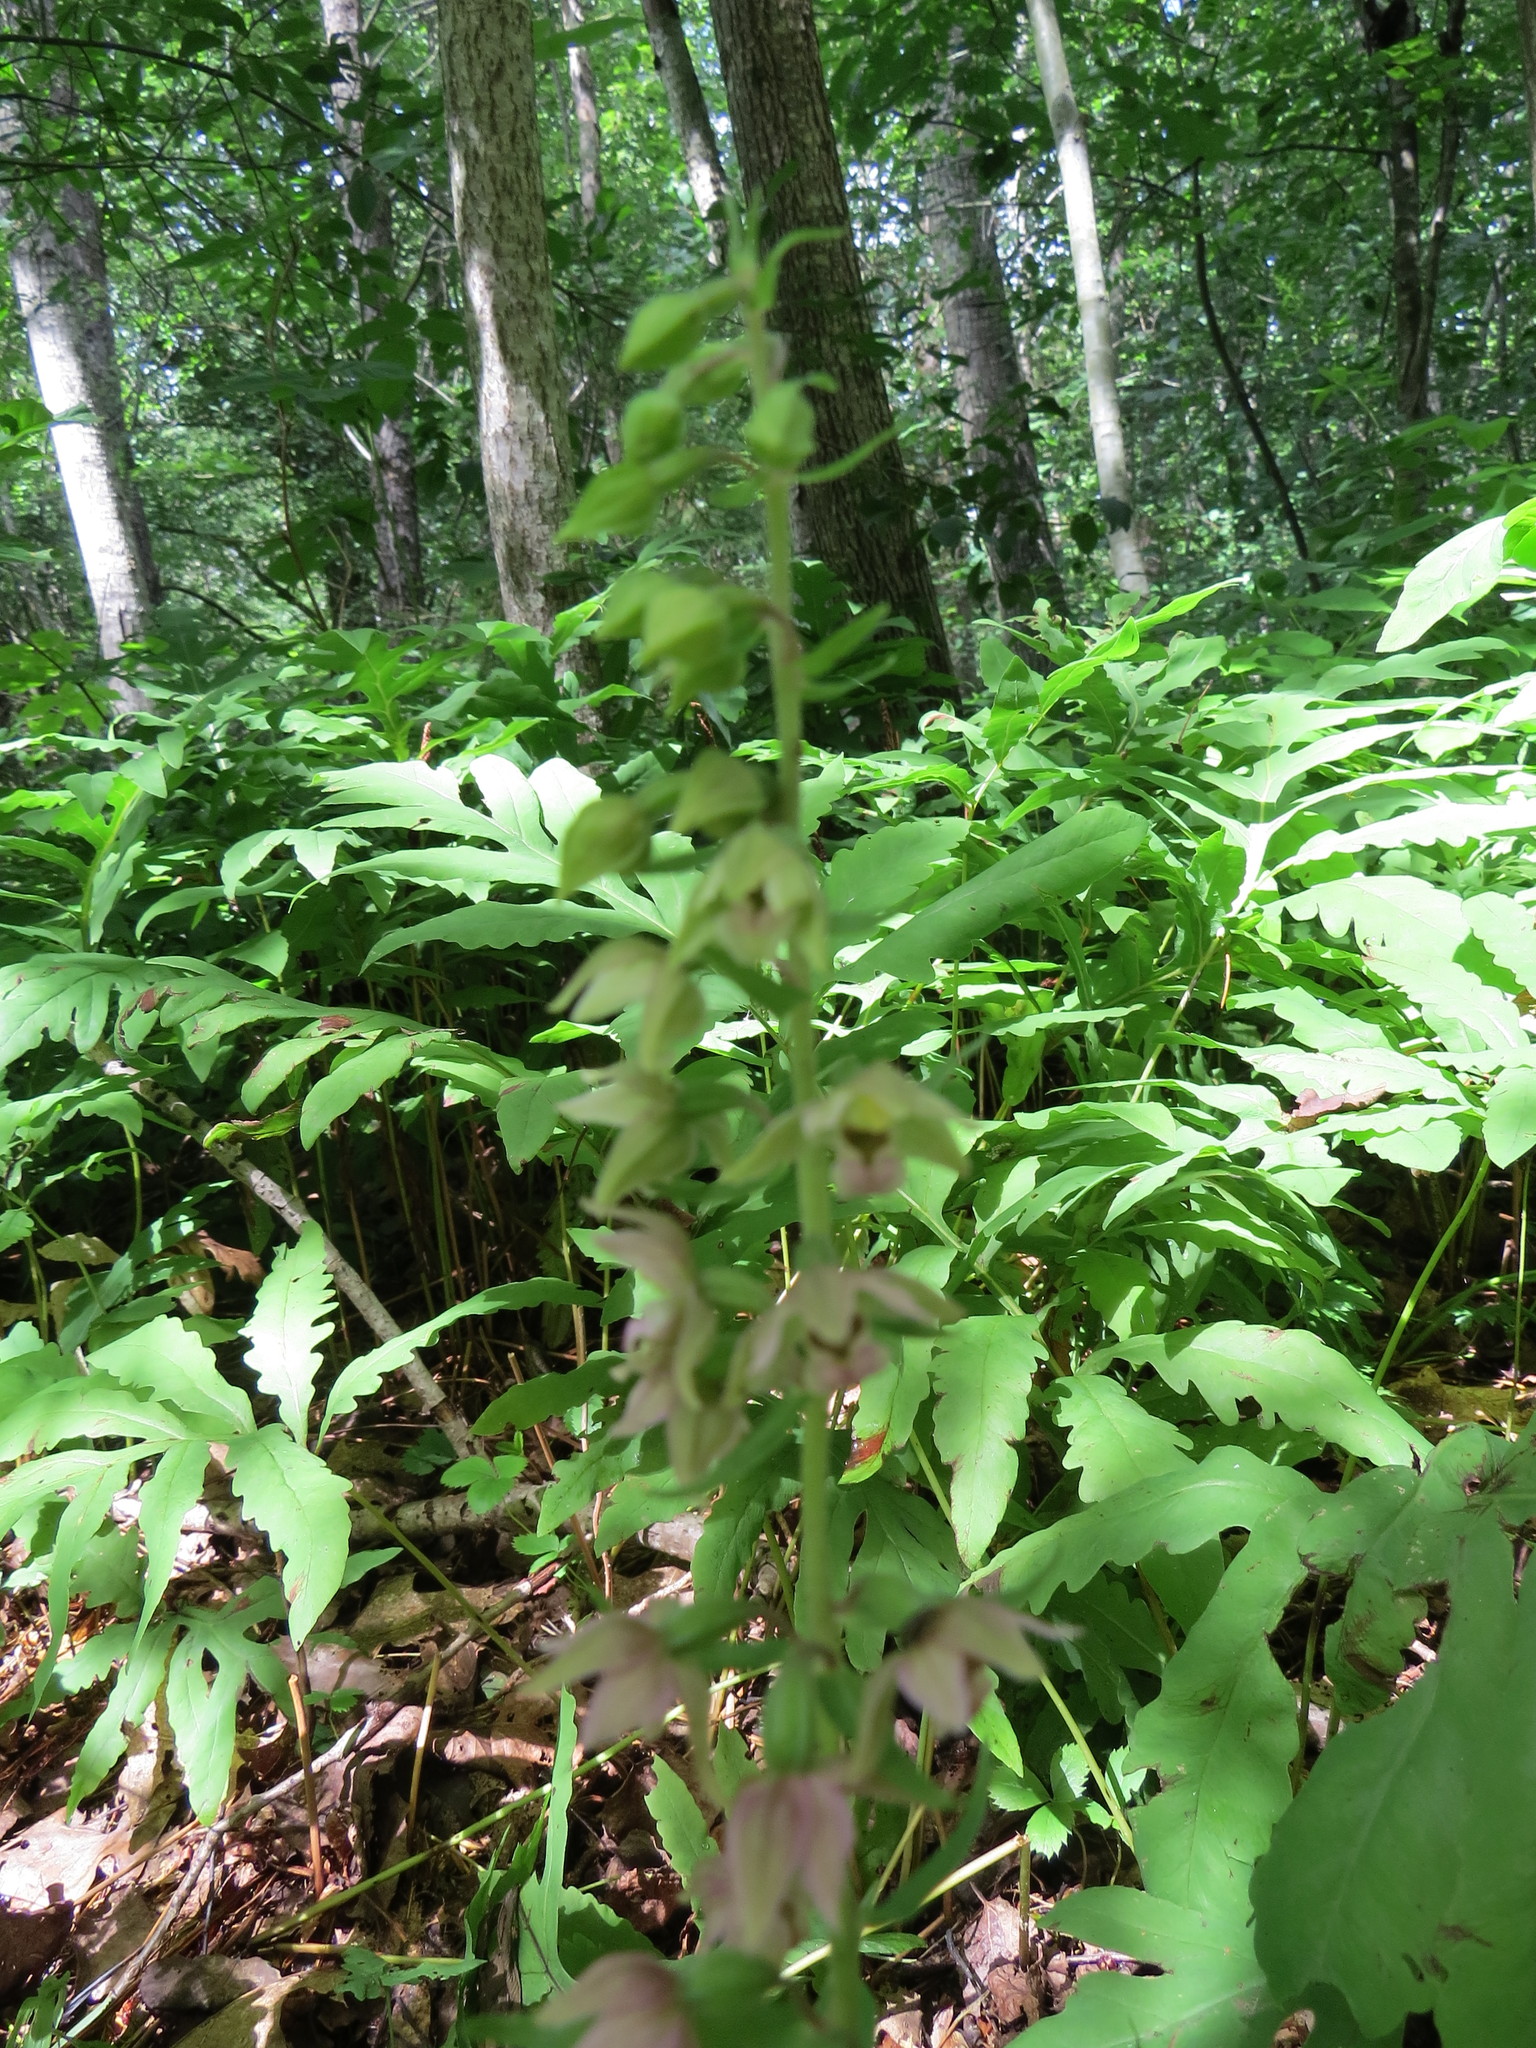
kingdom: Plantae
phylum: Tracheophyta
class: Liliopsida
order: Asparagales
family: Orchidaceae
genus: Epipactis
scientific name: Epipactis helleborine
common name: Broad-leaved helleborine
